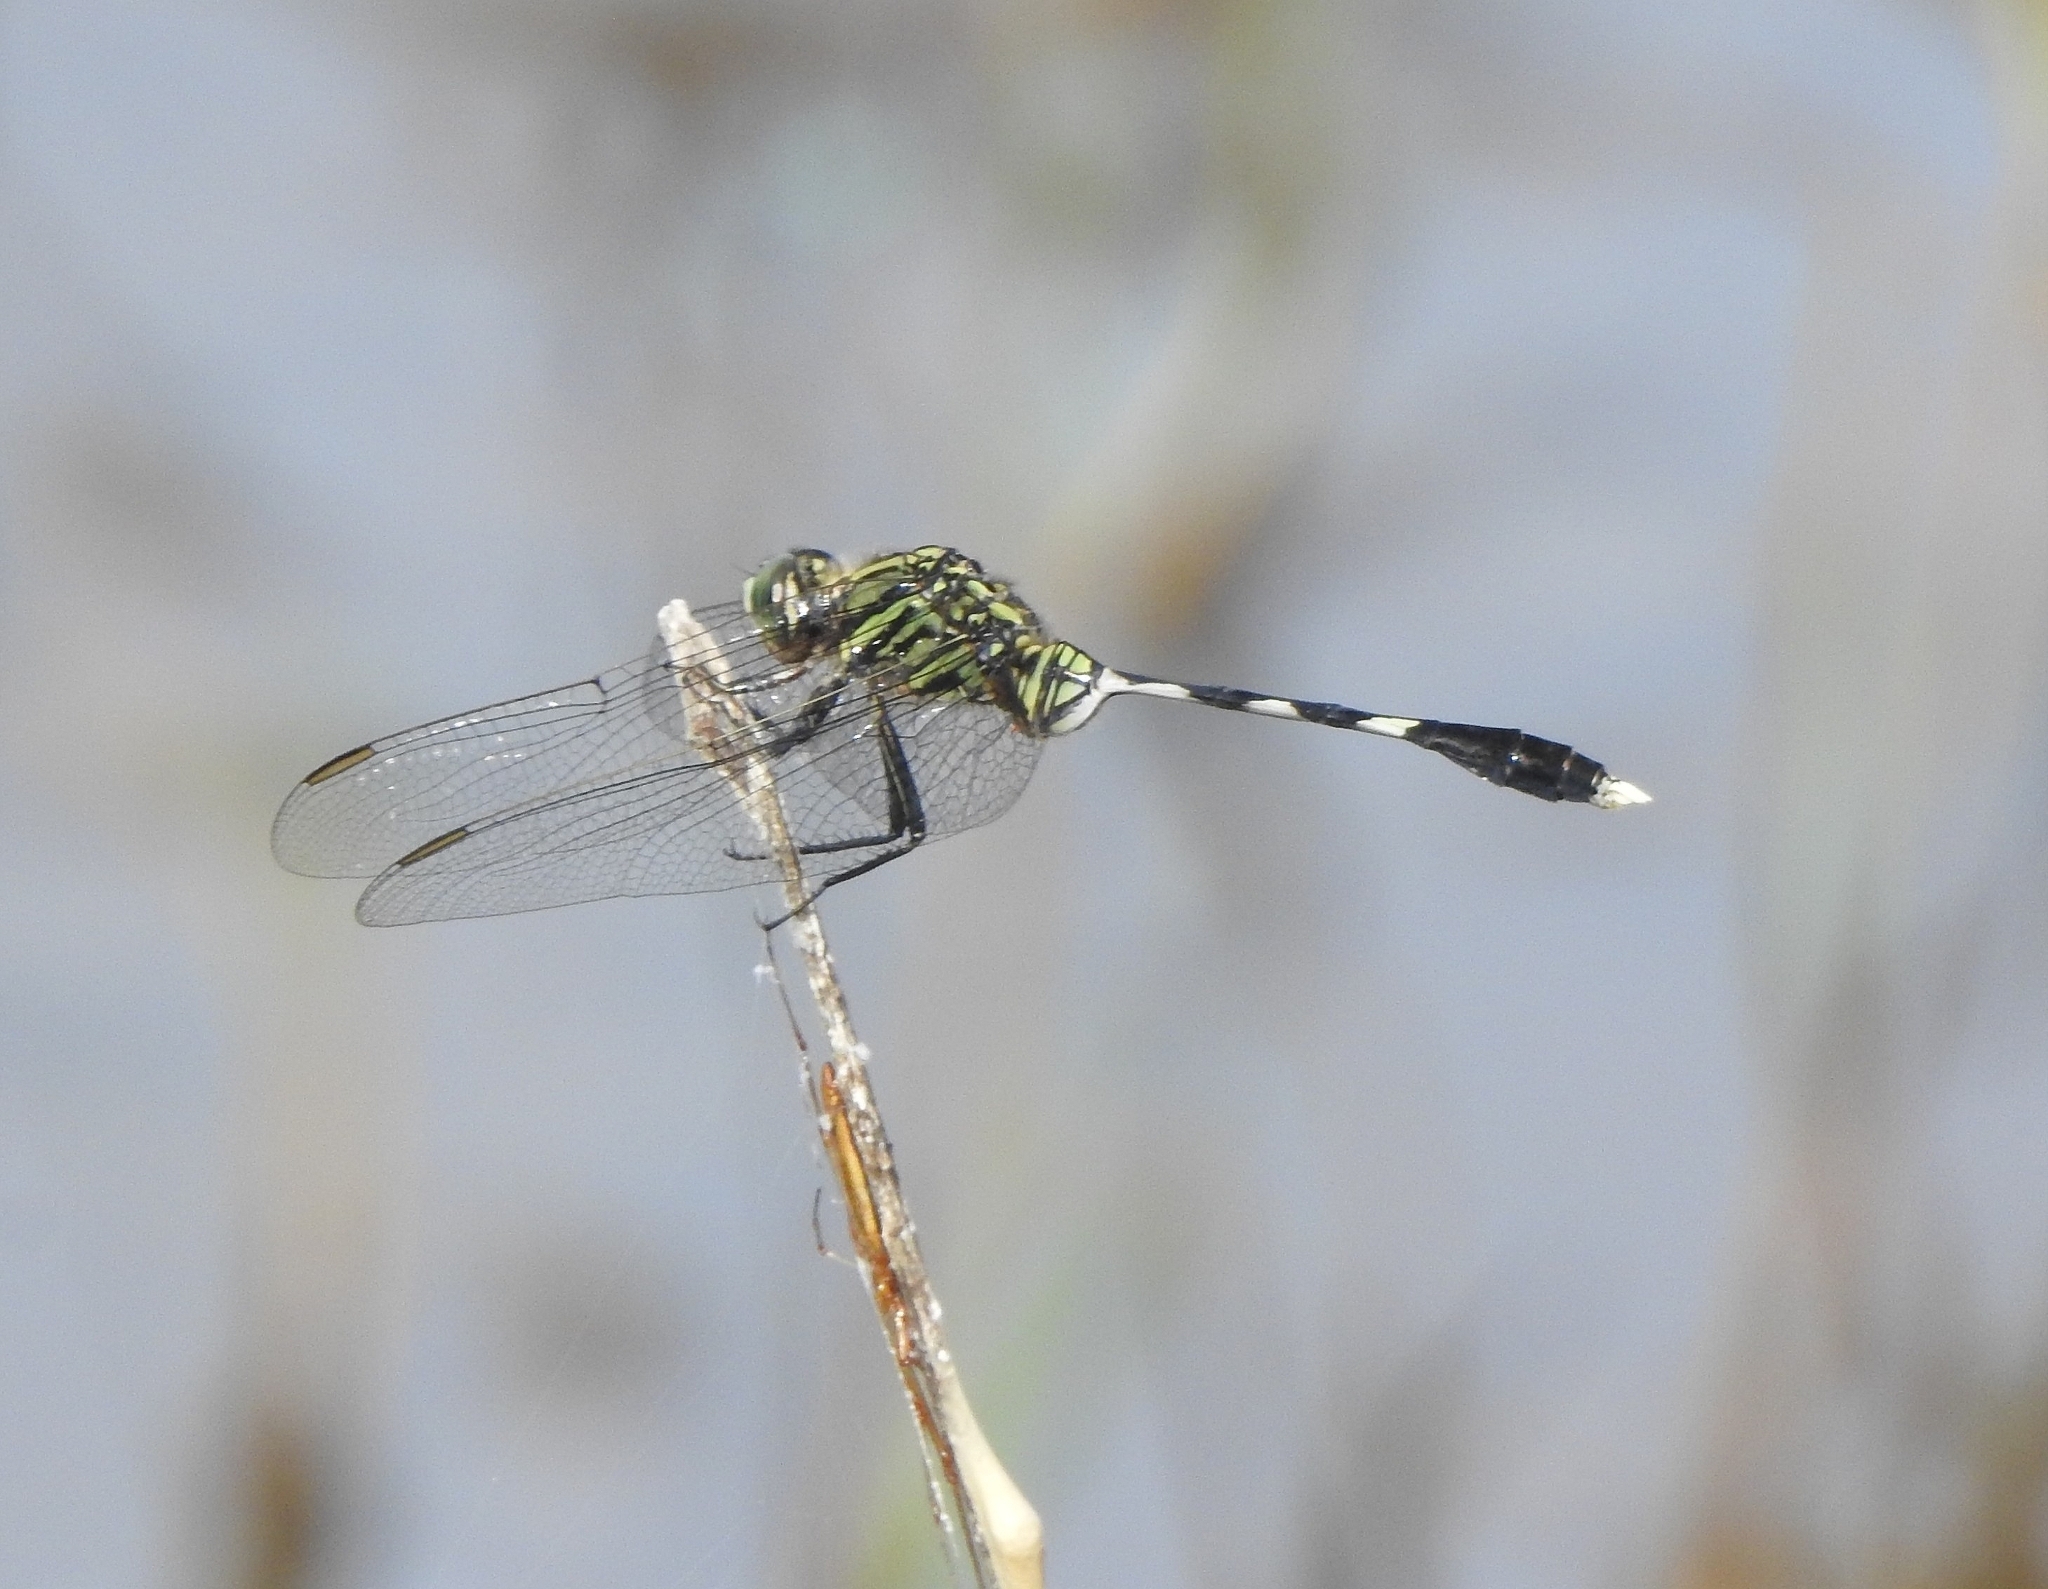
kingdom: Animalia
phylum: Arthropoda
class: Insecta
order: Odonata
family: Libellulidae
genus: Orthetrum
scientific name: Orthetrum sabina
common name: Slender skimmer
